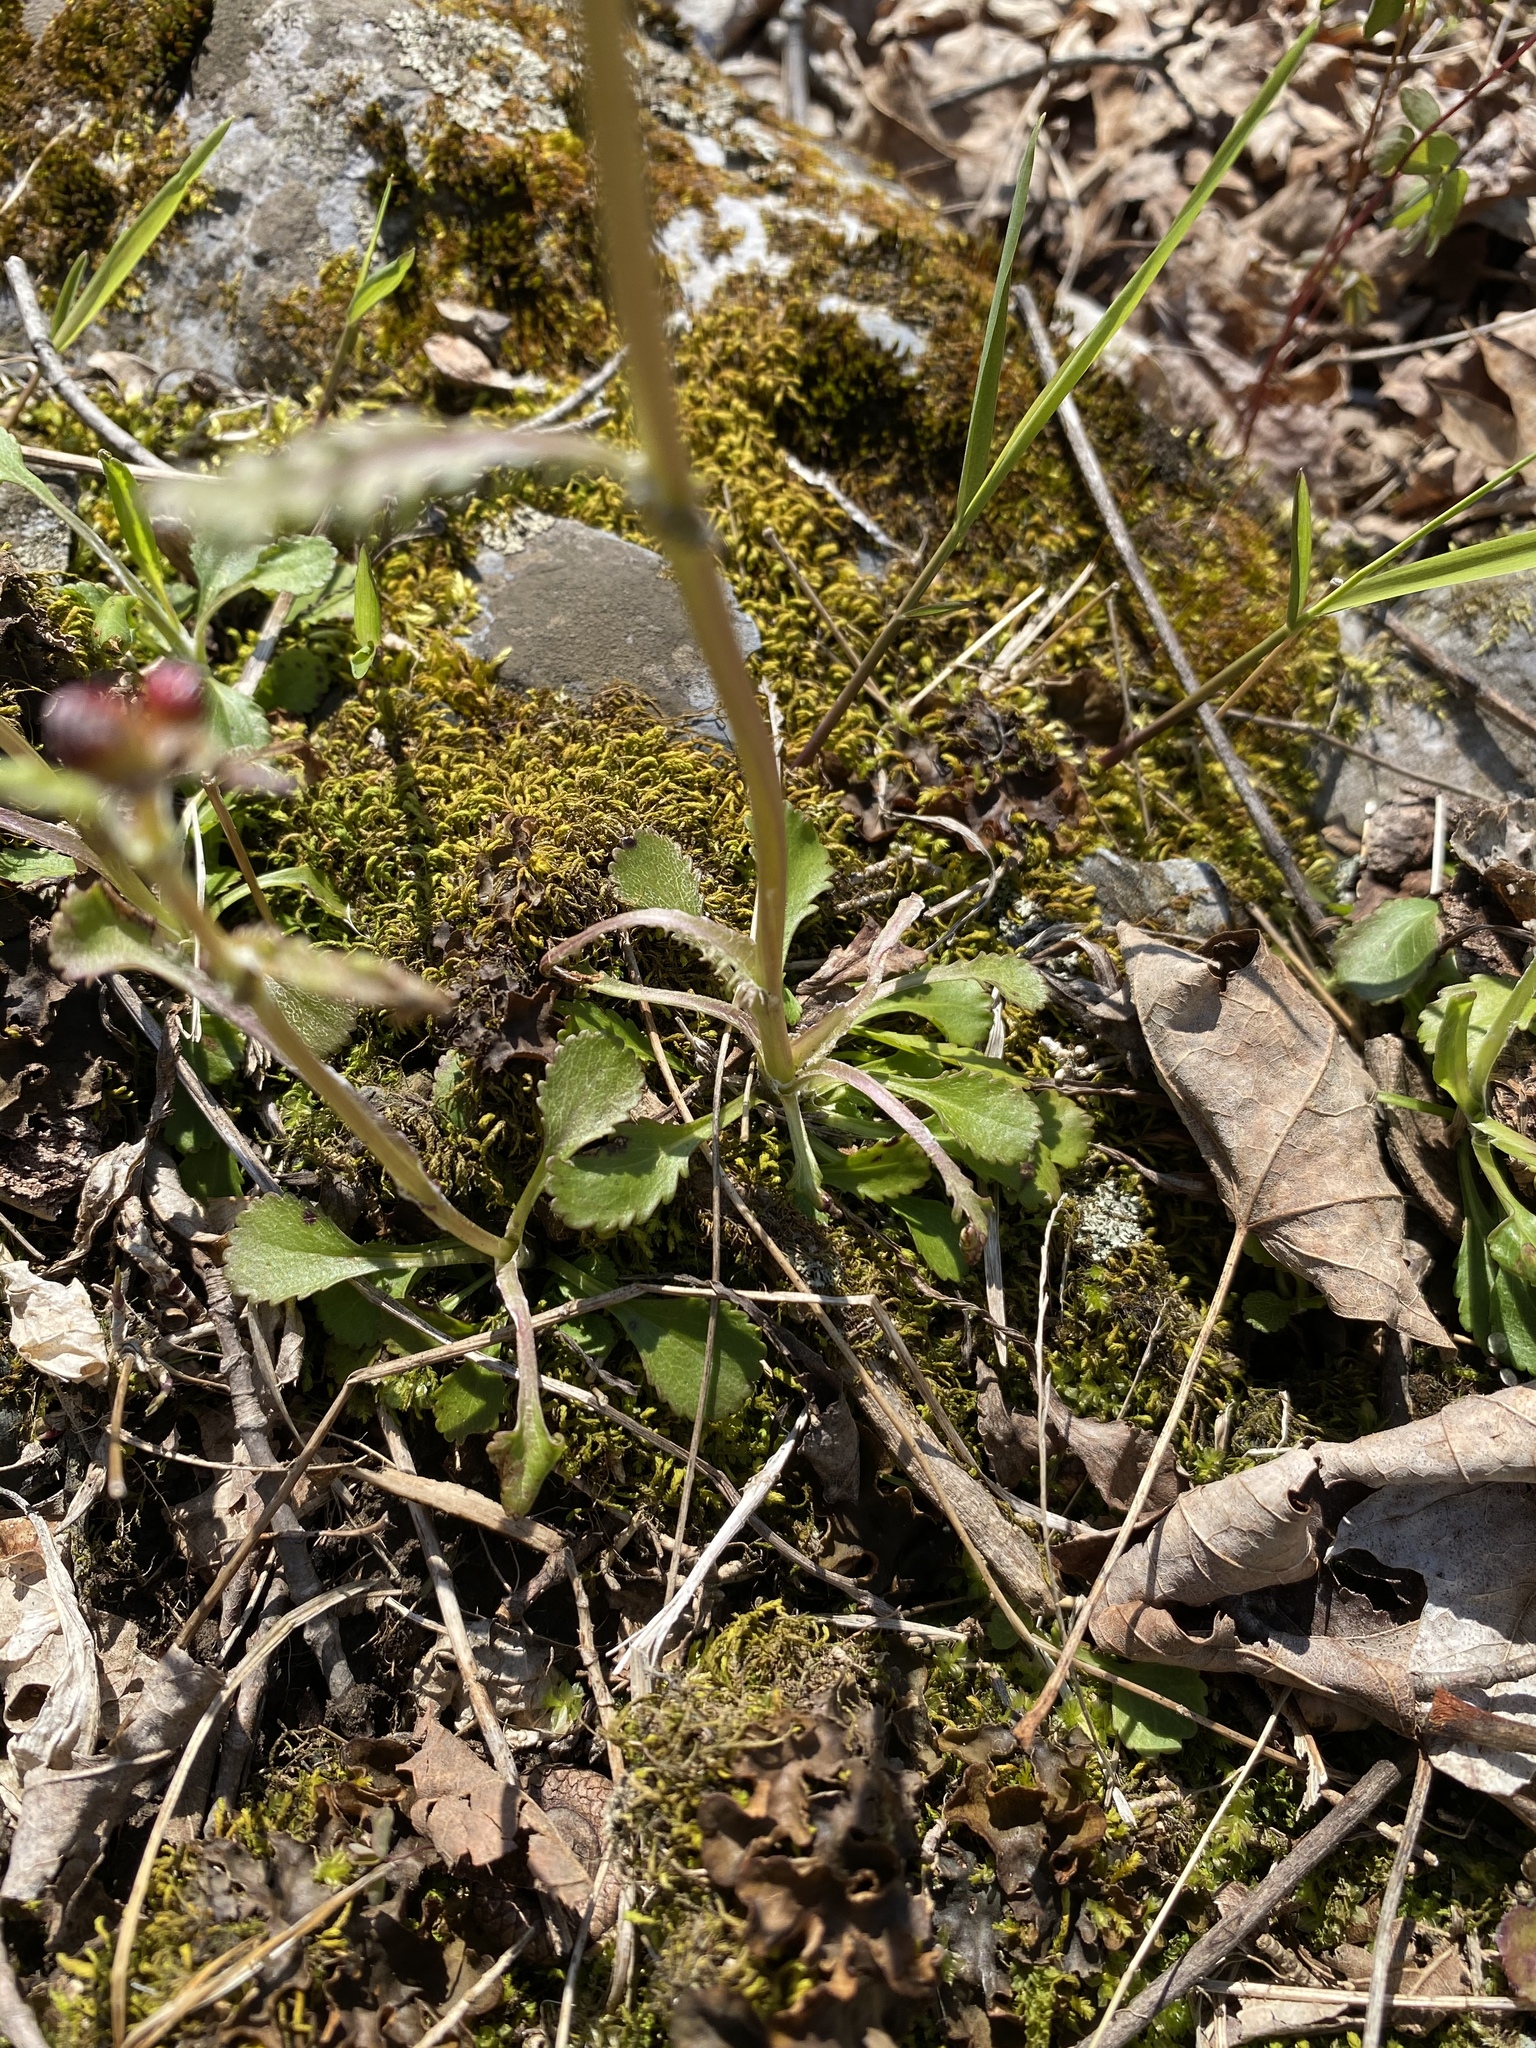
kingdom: Plantae
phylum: Tracheophyta
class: Magnoliopsida
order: Asterales
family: Asteraceae
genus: Packera
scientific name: Packera obovata
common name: Round-leaf ragwort
